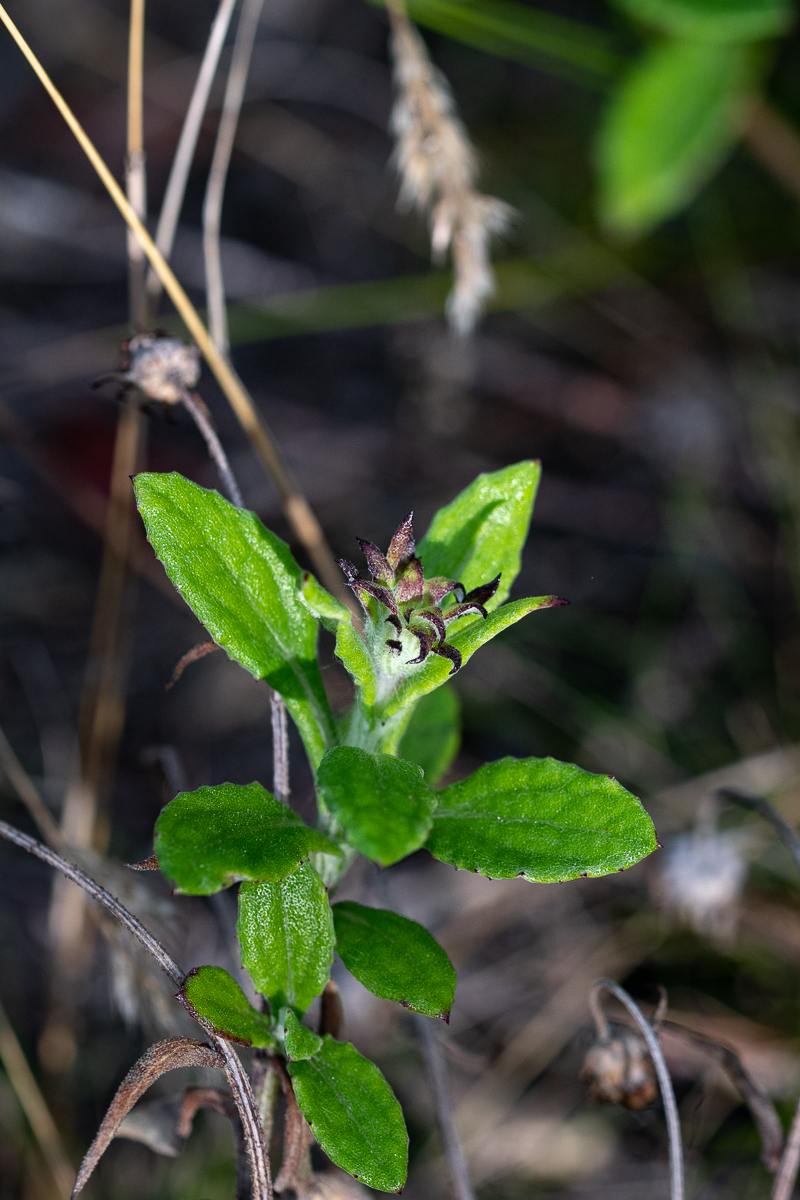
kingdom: Plantae
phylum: Tracheophyta
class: Magnoliopsida
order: Asterales
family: Asteraceae
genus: Arctotis
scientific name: Arctotis scabra
